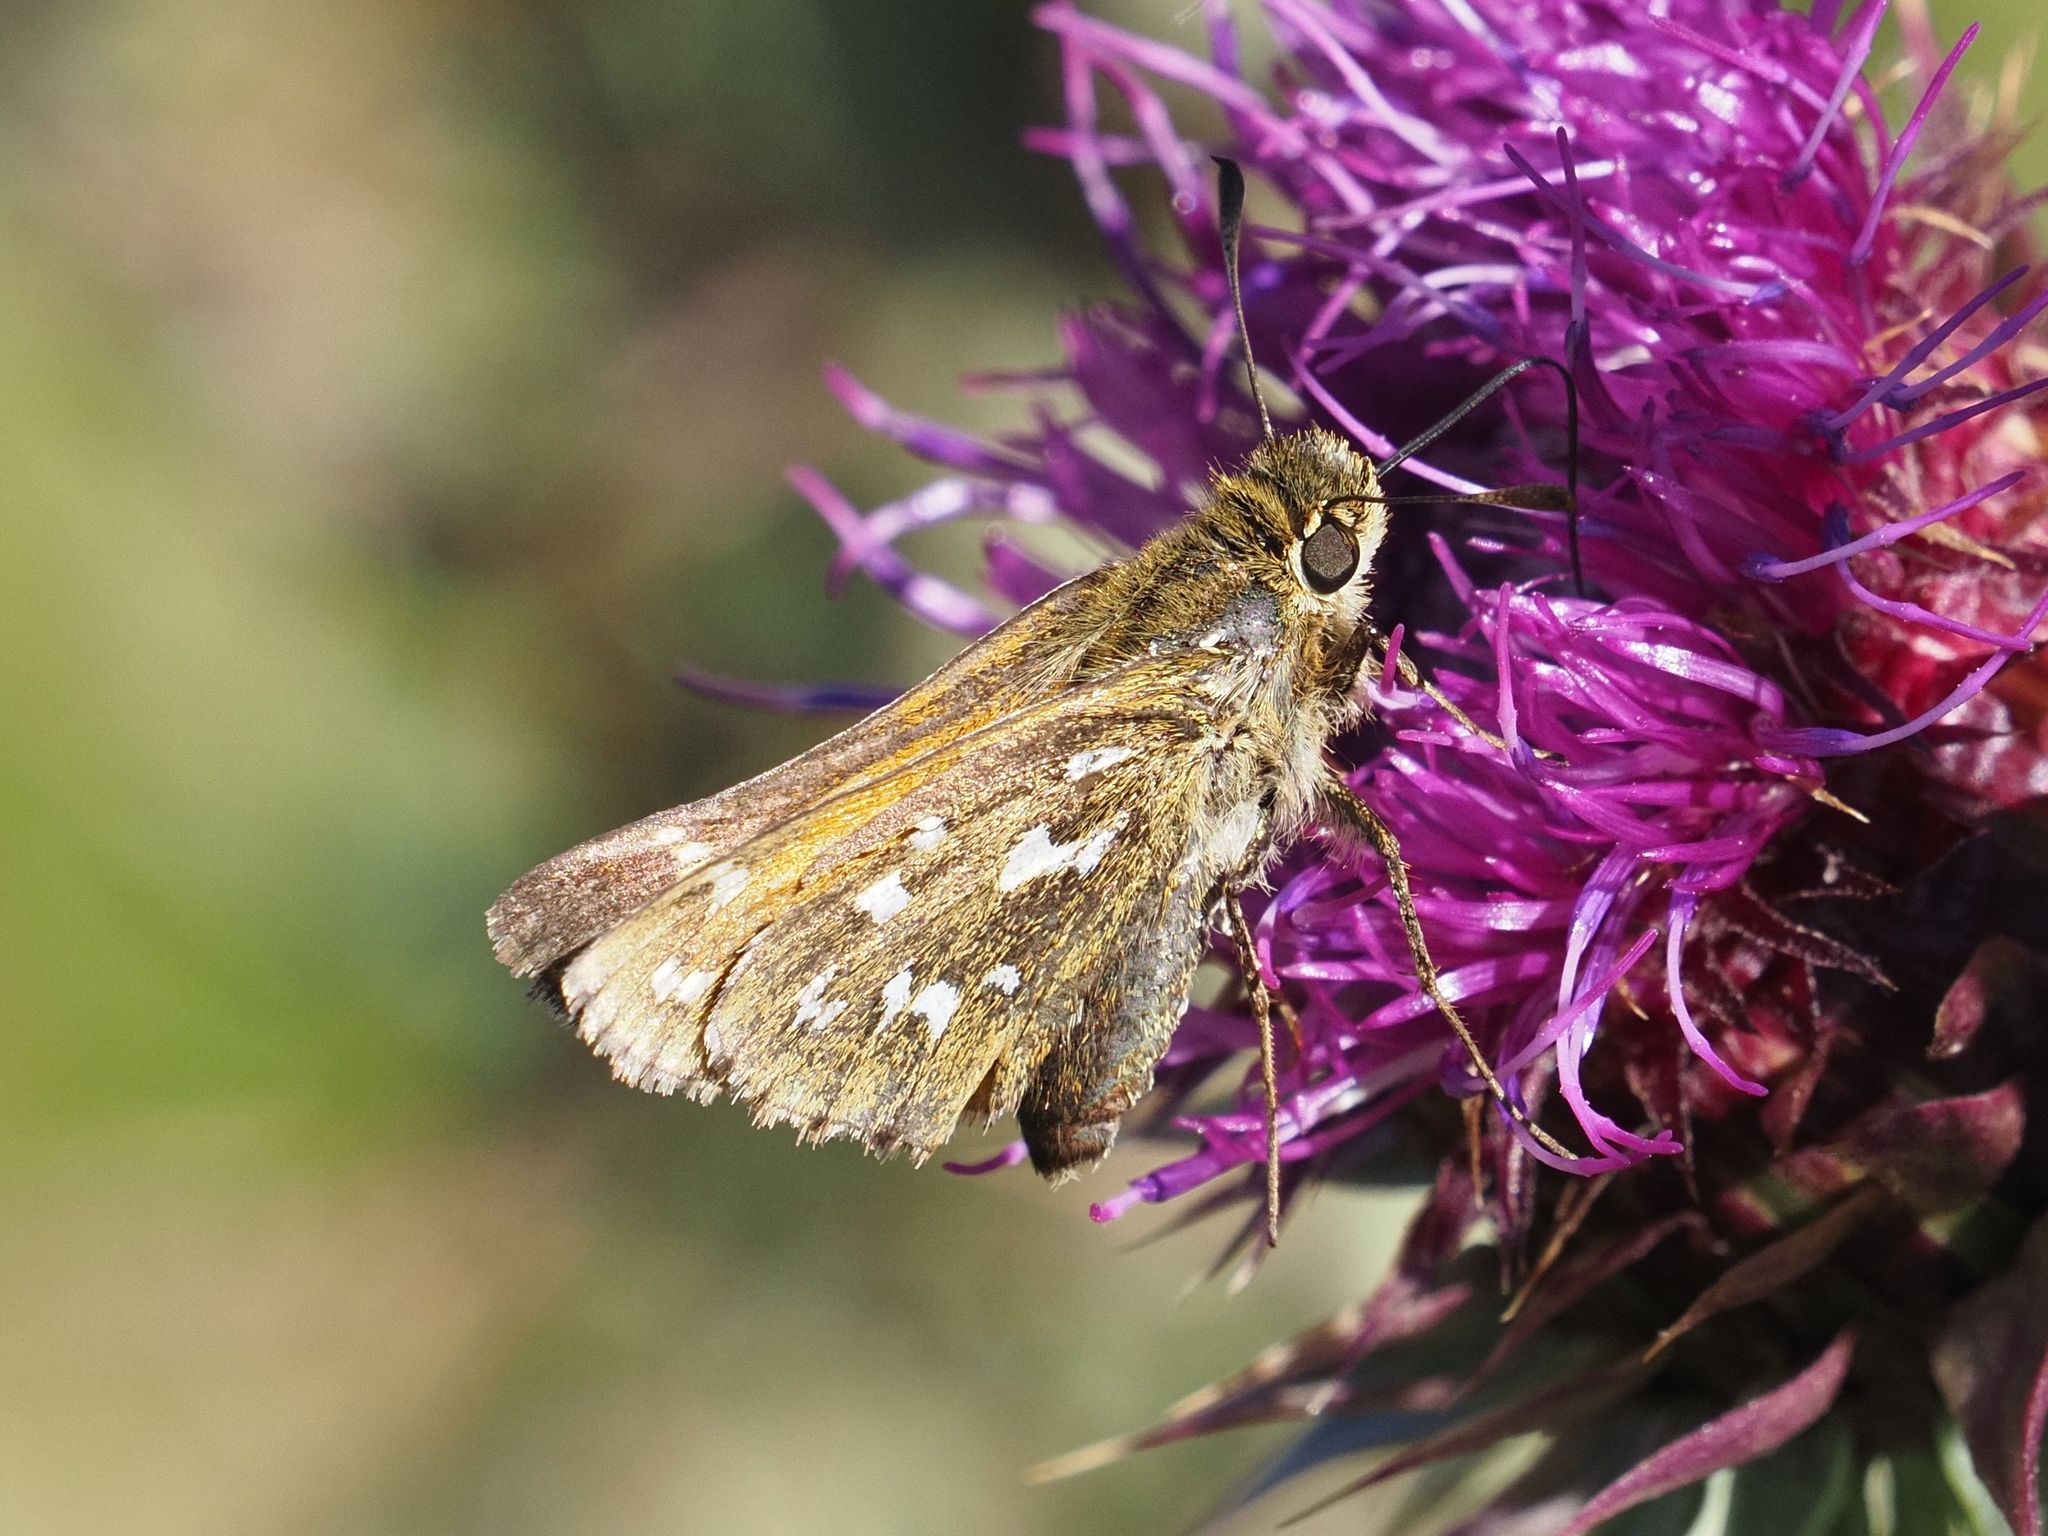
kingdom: Animalia
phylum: Arthropoda
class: Insecta
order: Lepidoptera
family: Hesperiidae
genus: Hesperia
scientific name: Hesperia comma
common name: Common branded skipper
